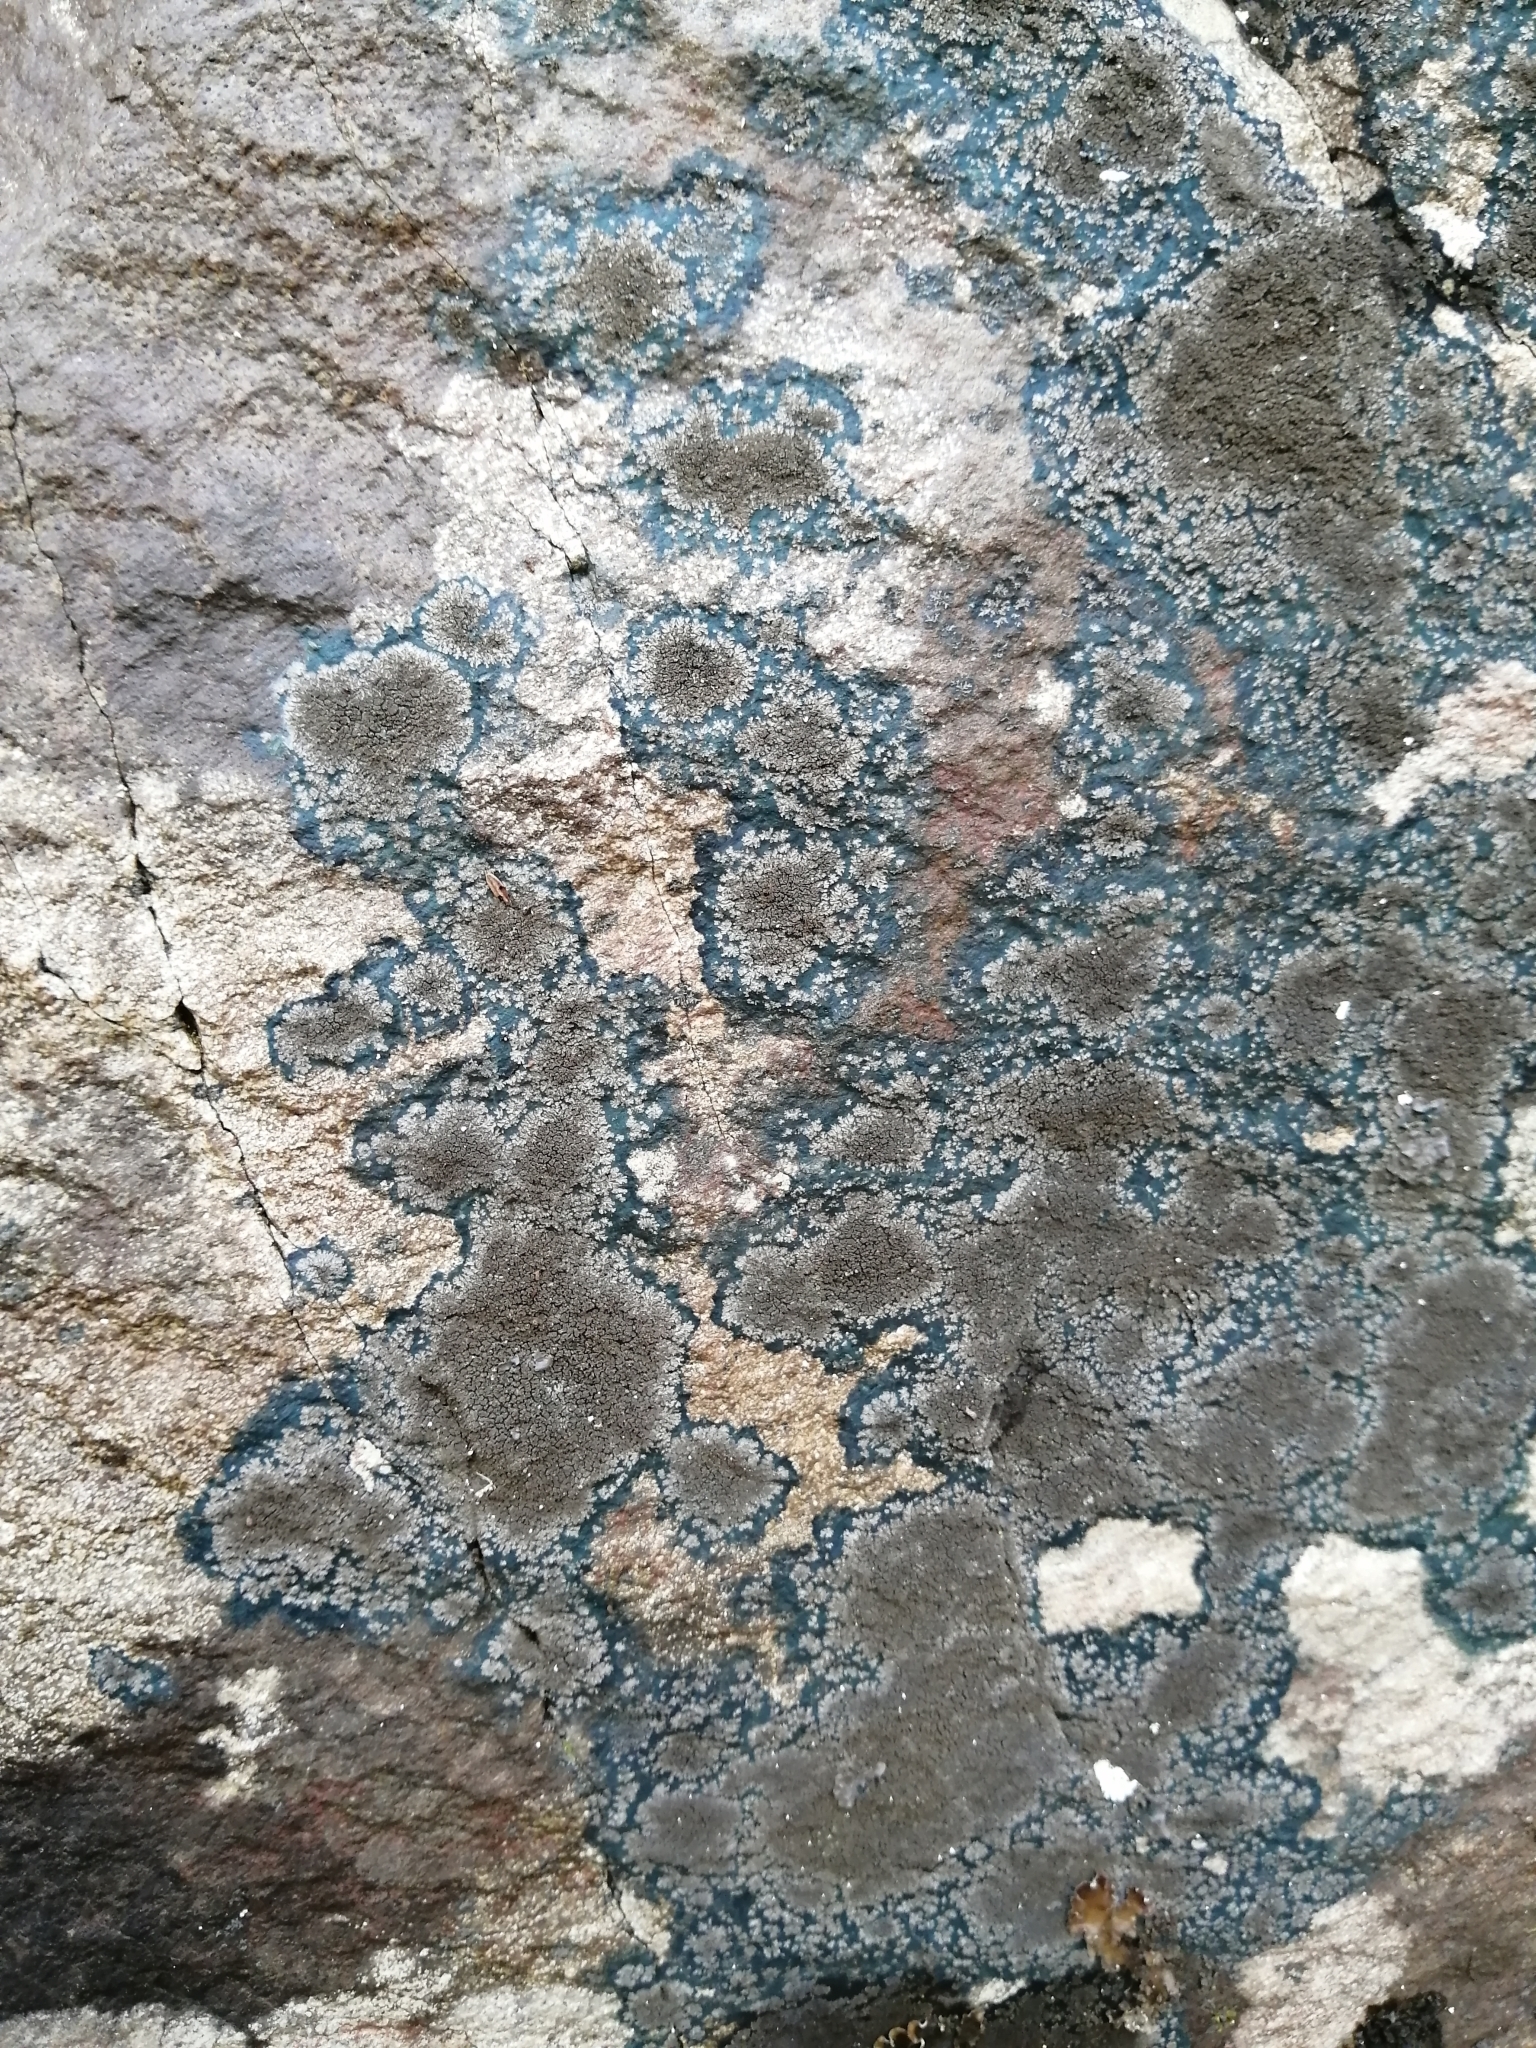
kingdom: Fungi
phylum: Ascomycota
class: Lecanoromycetes
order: Peltigerales
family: Pannariaceae
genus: Parmeliella
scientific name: Parmeliella thriptophylla
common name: Black-bordered shingle lichen
